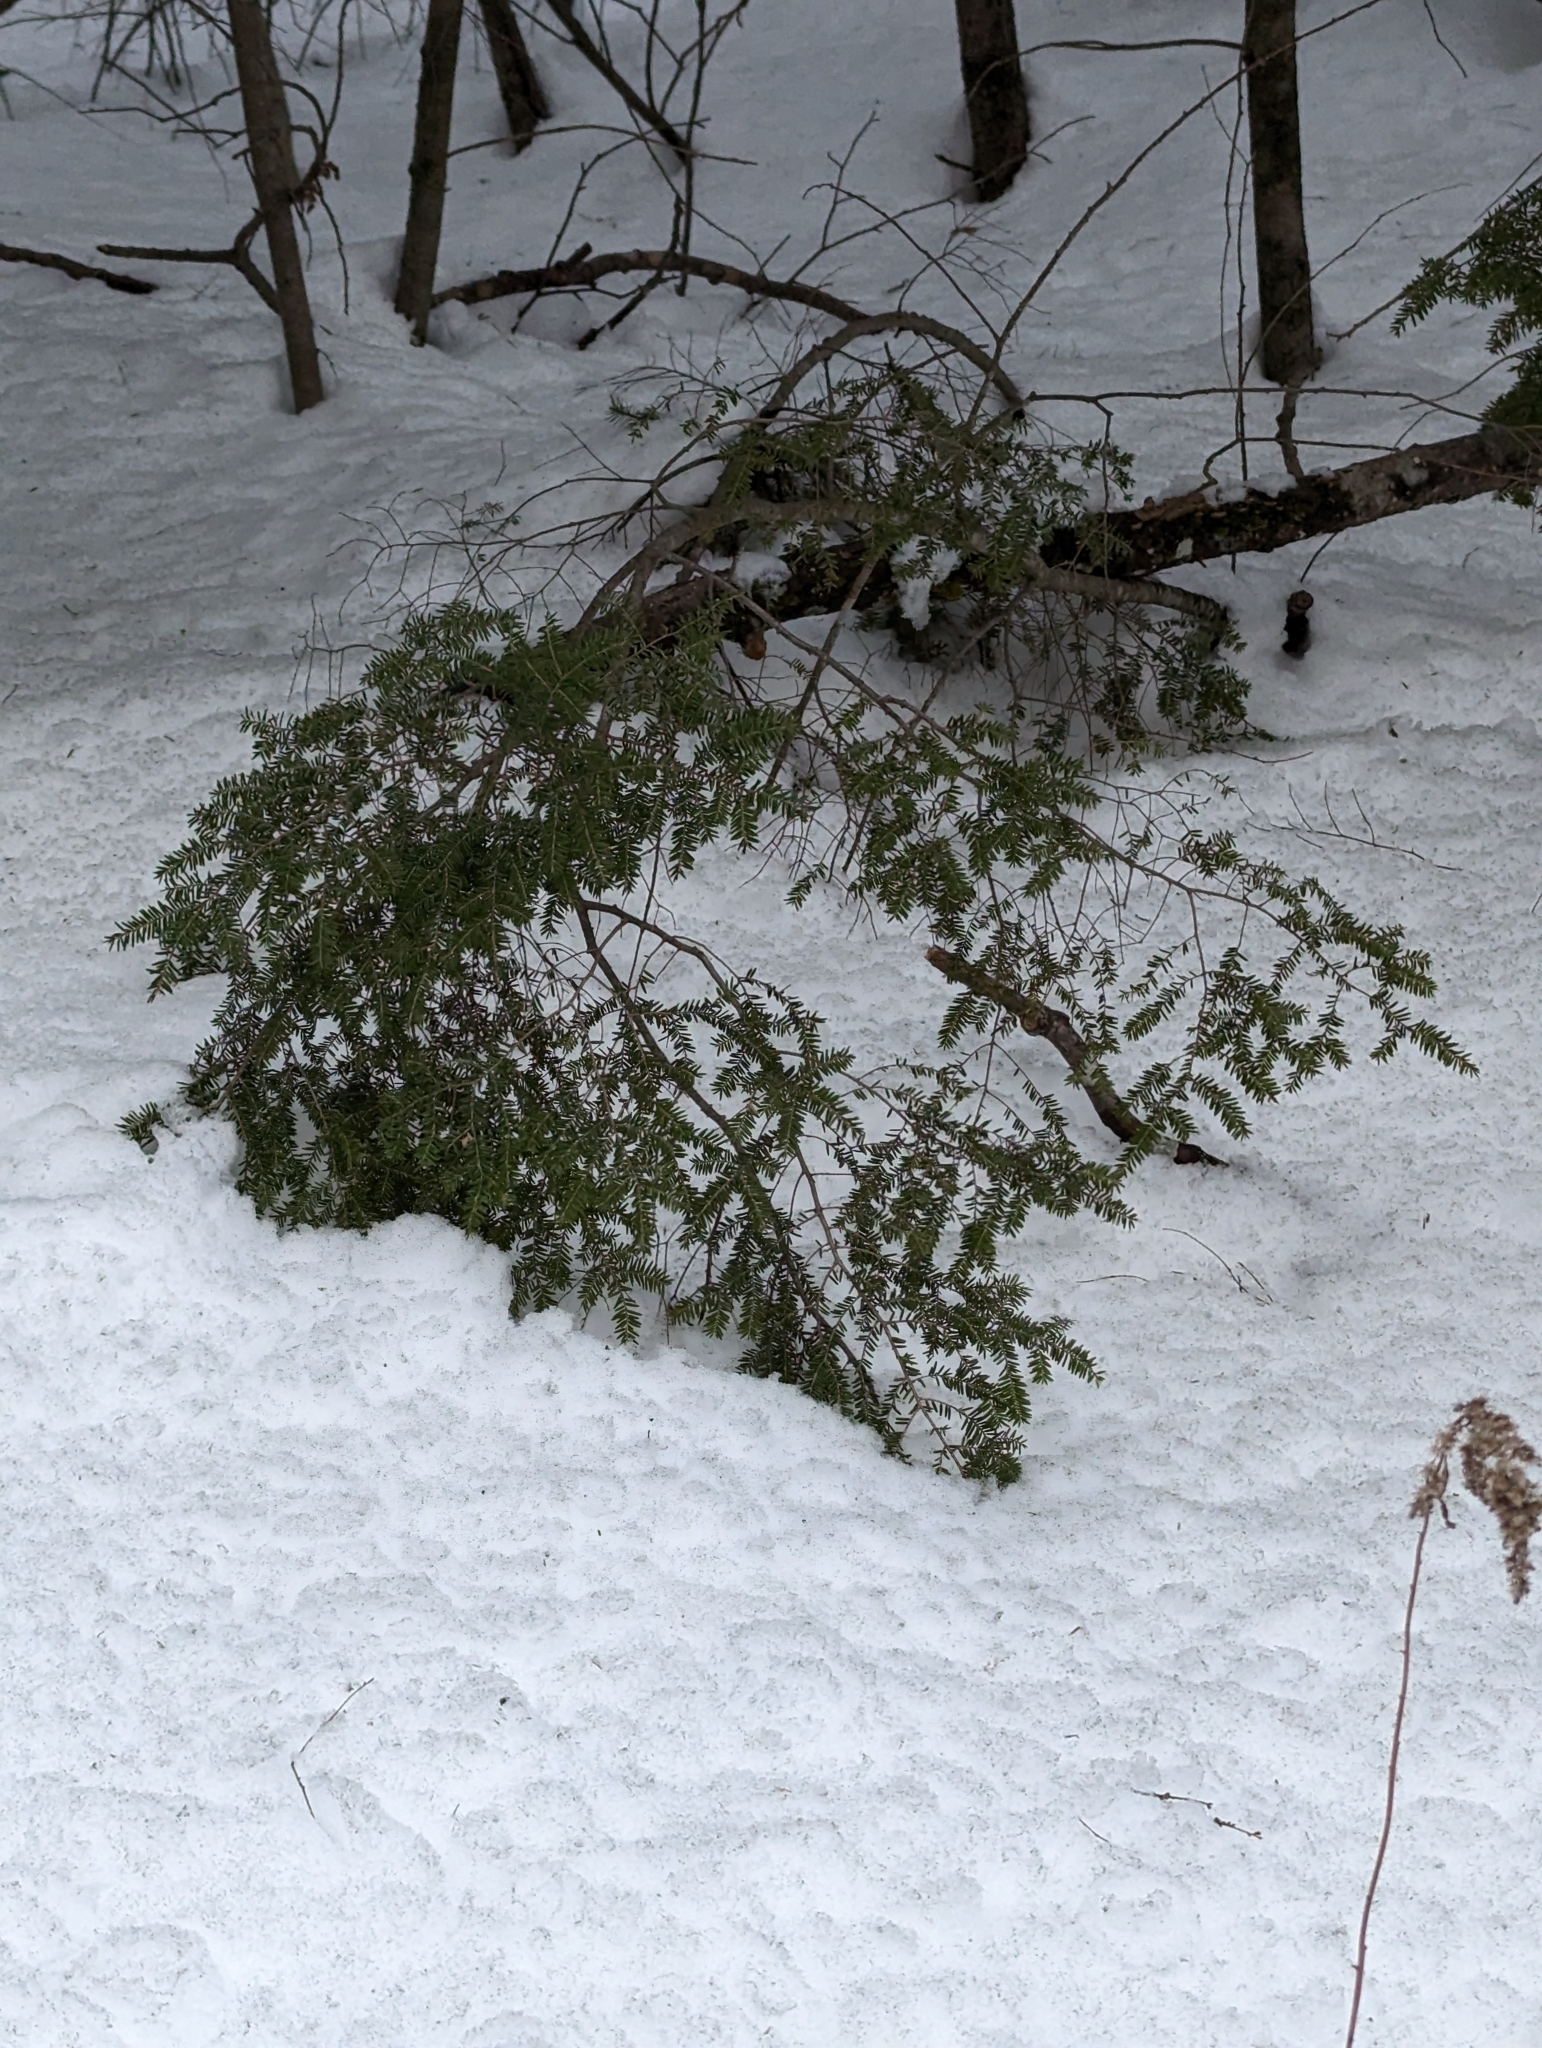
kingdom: Plantae
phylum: Tracheophyta
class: Pinopsida
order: Pinales
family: Pinaceae
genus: Tsuga
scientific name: Tsuga canadensis
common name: Eastern hemlock
